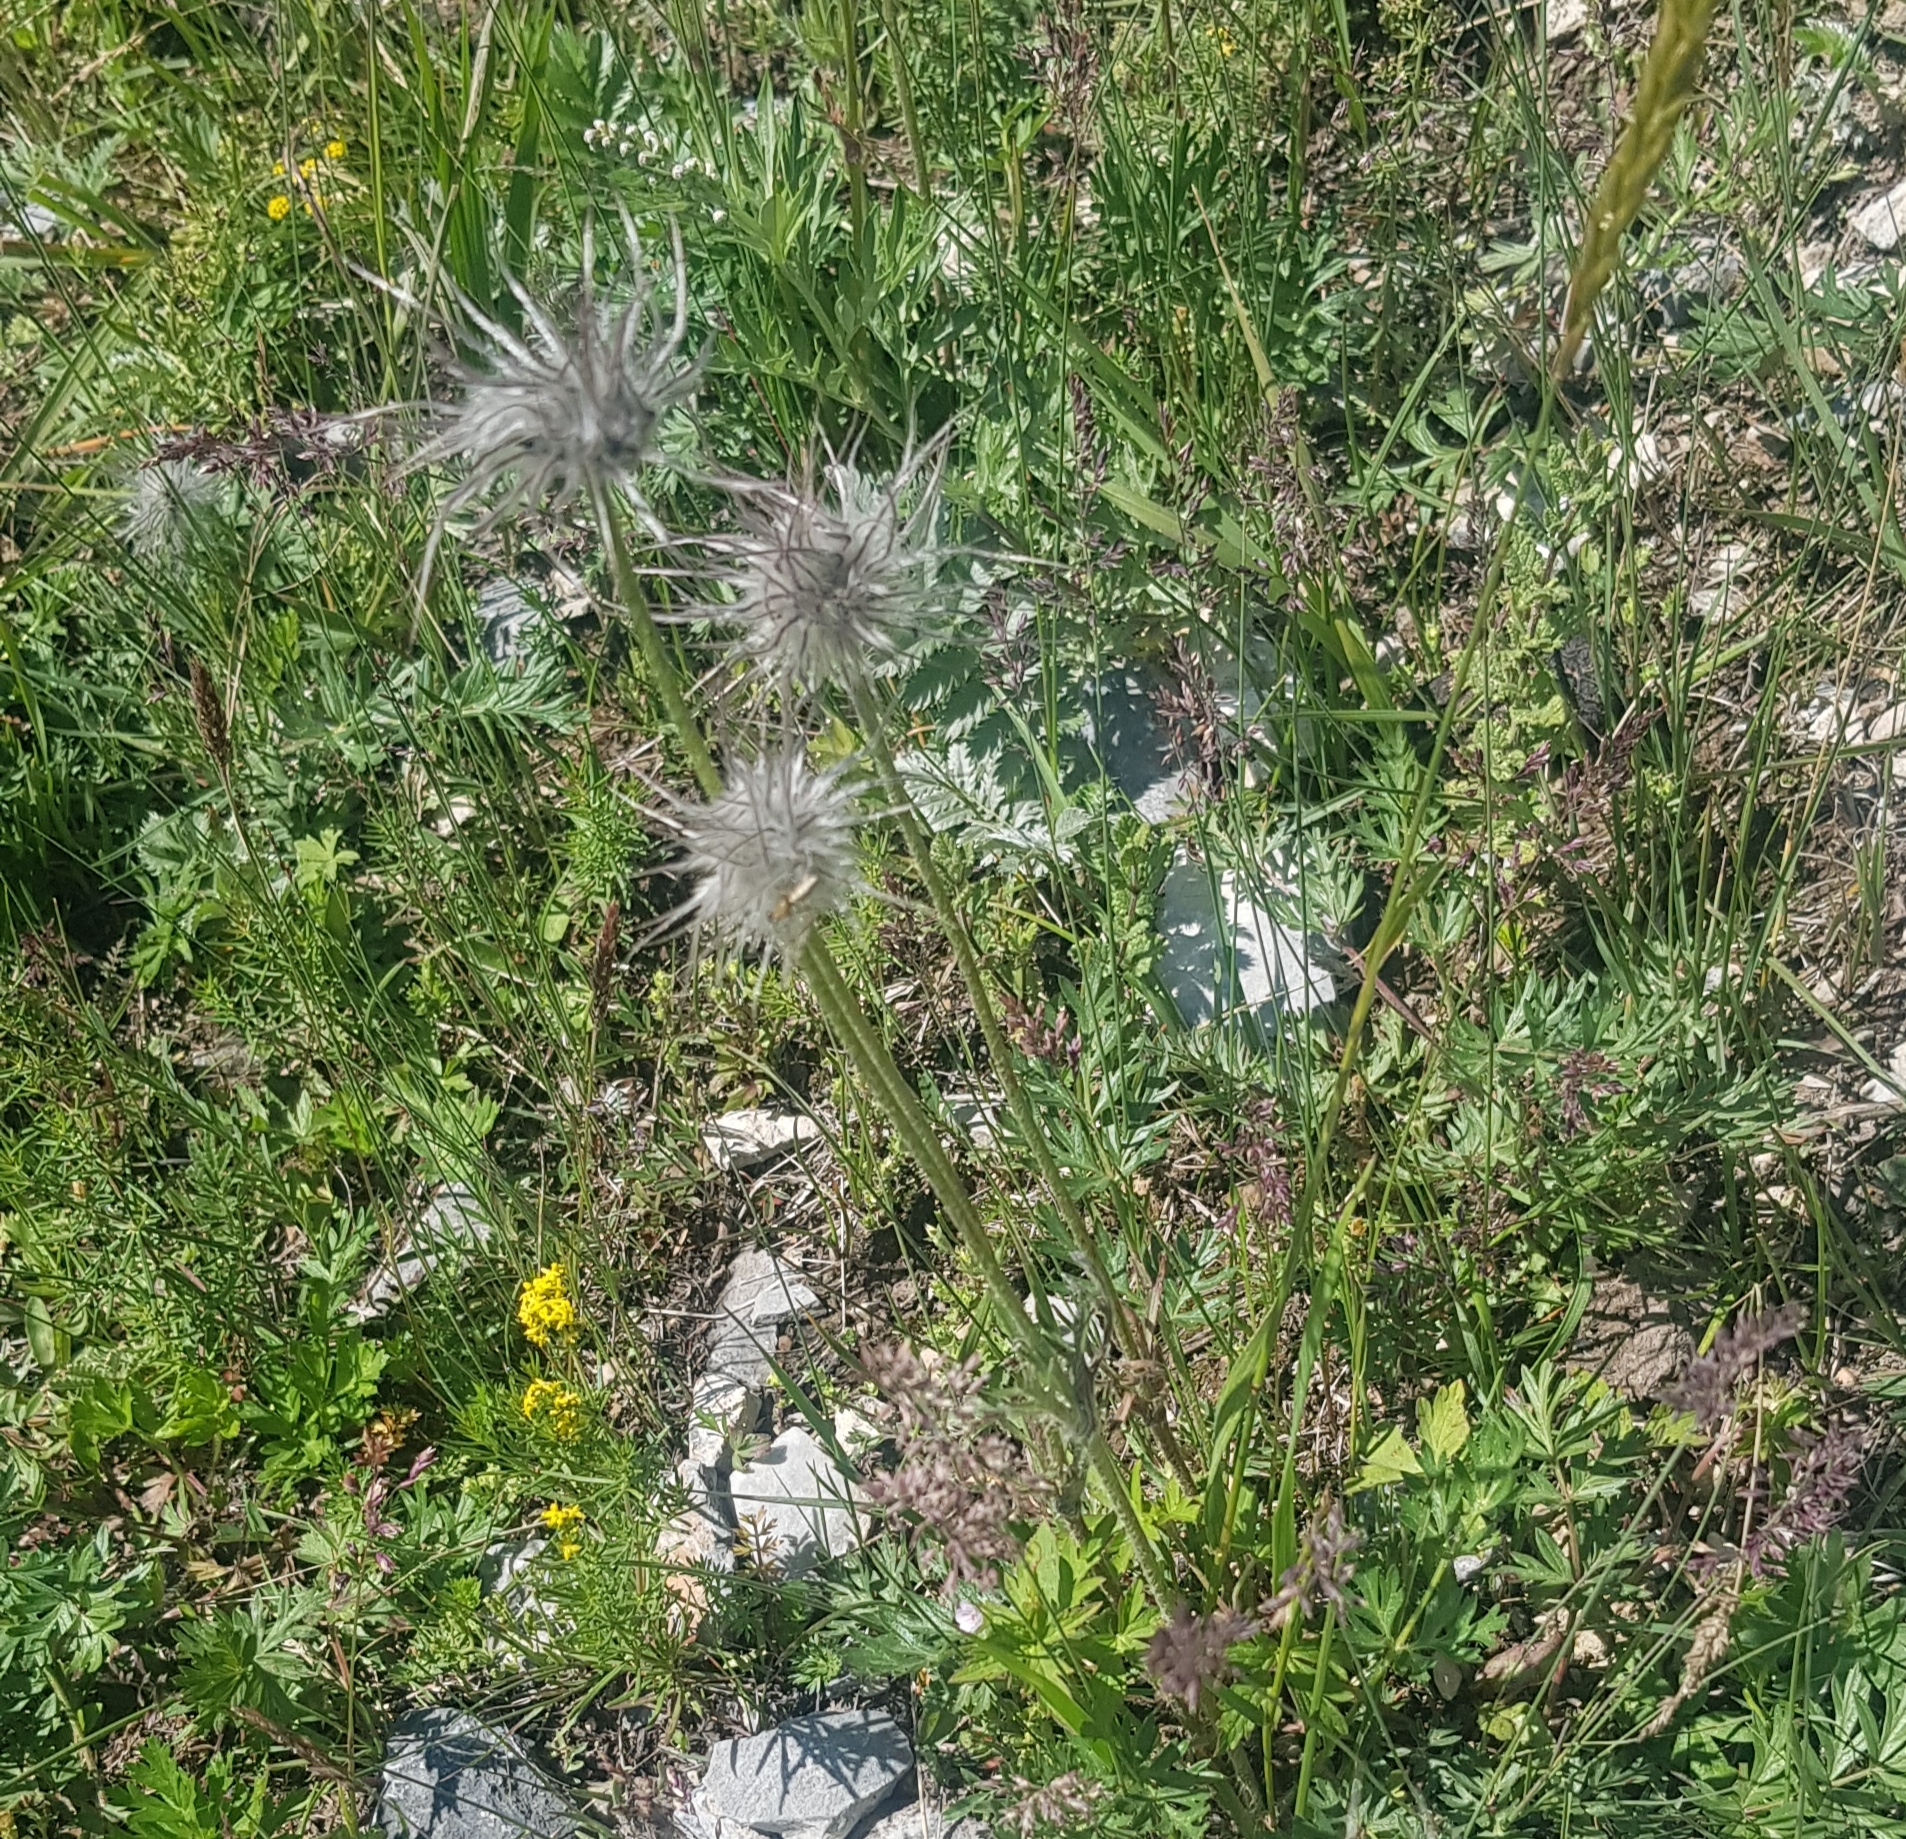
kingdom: Plantae
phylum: Tracheophyta
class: Magnoliopsida
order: Ranunculales
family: Ranunculaceae
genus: Pulsatilla
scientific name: Pulsatilla turczaninovii
